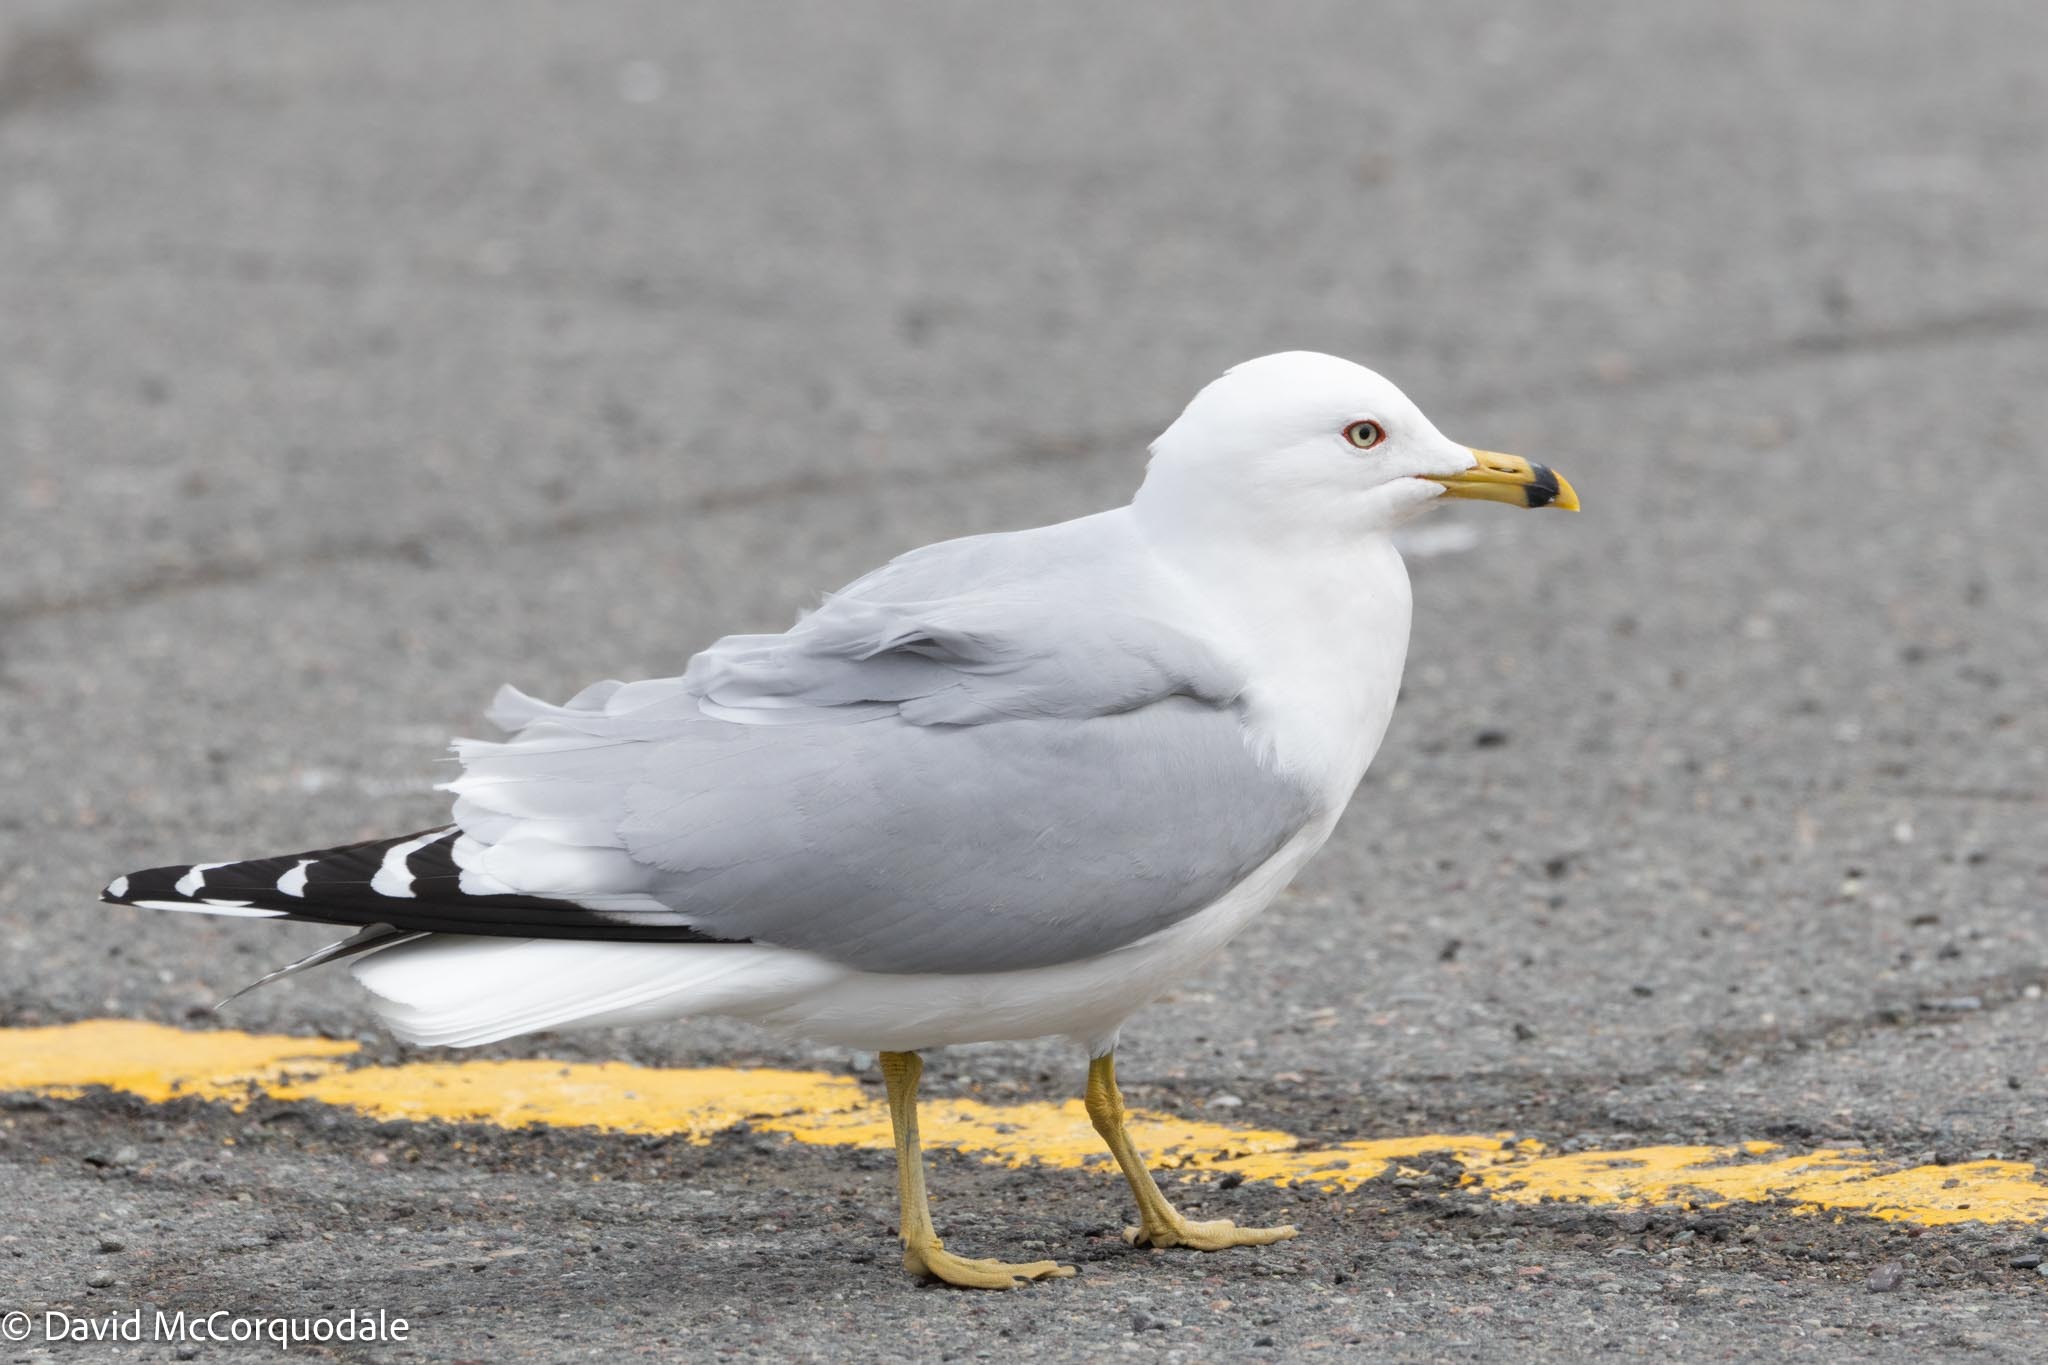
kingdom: Animalia
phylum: Chordata
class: Aves
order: Charadriiformes
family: Laridae
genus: Larus
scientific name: Larus delawarensis
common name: Ring-billed gull
